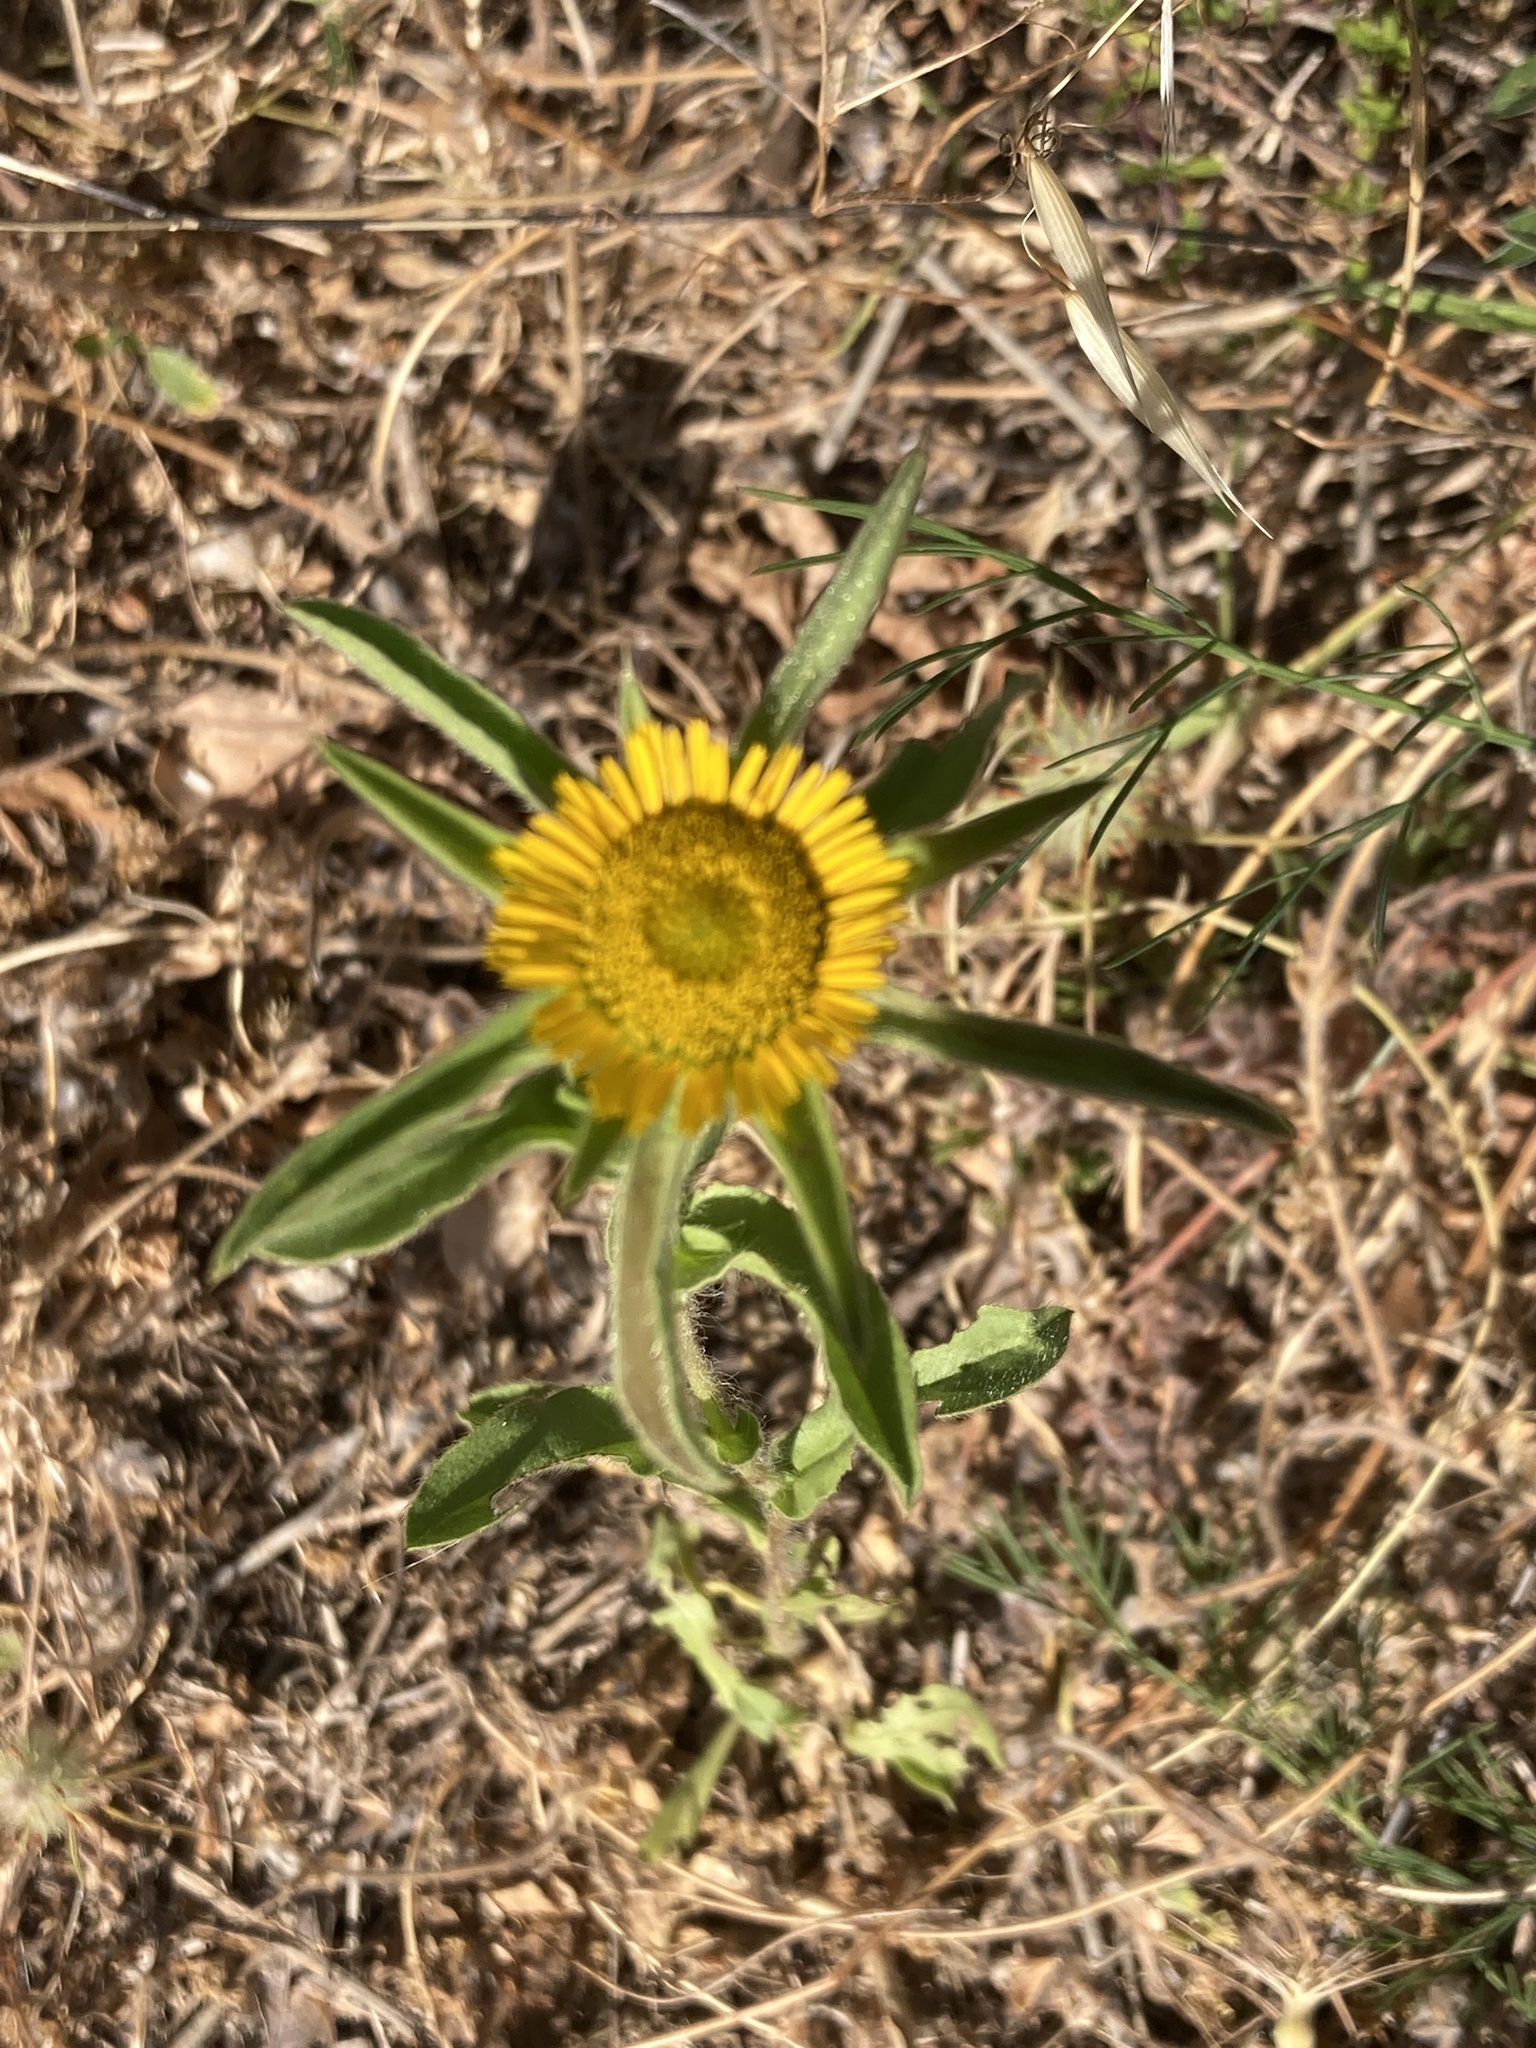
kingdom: Plantae
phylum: Tracheophyta
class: Magnoliopsida
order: Asterales
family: Asteraceae
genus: Pallenis
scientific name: Pallenis spinosa
